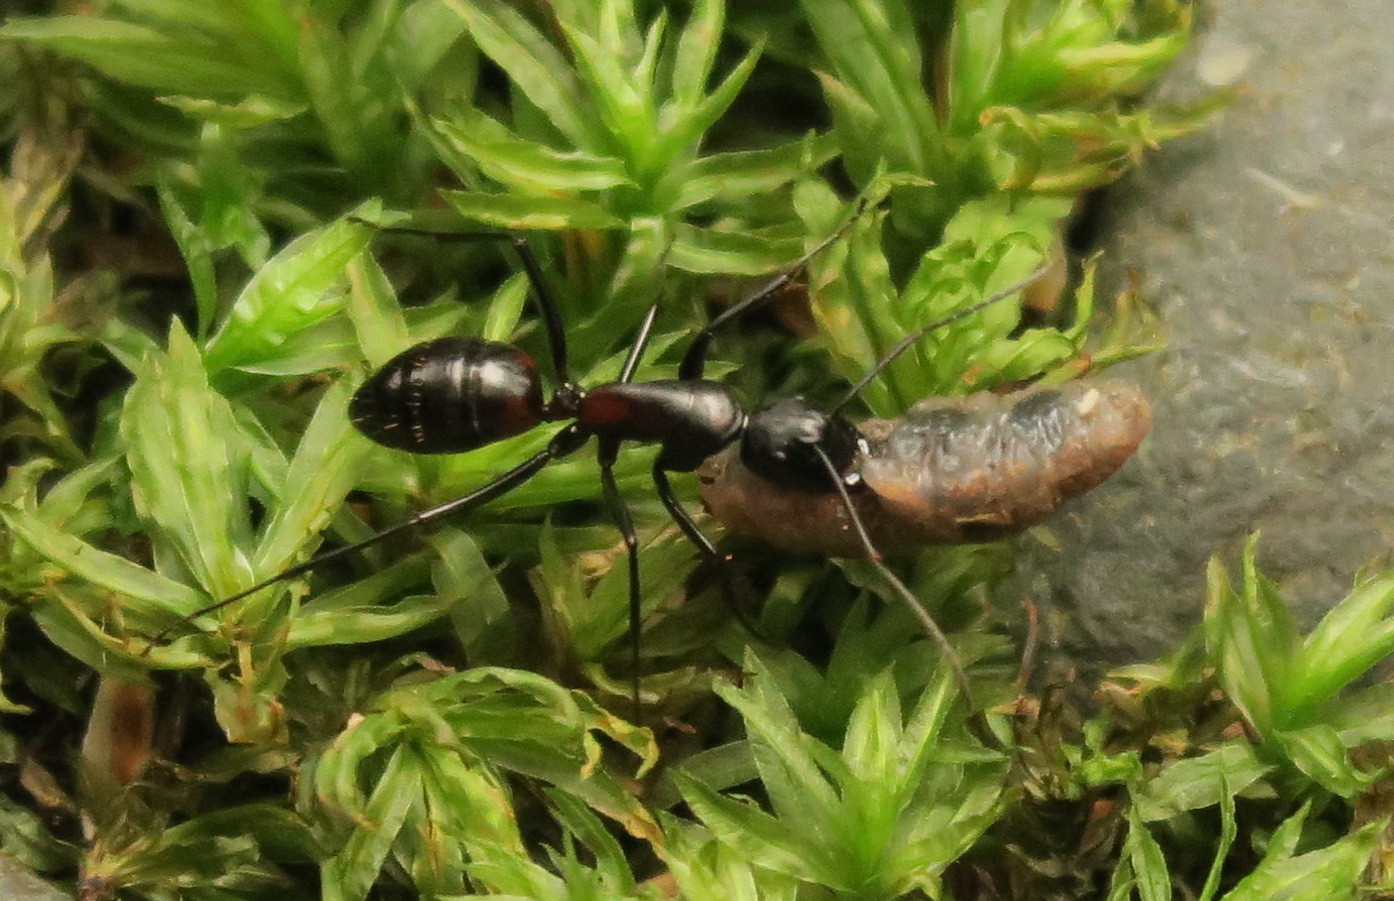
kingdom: Animalia
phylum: Arthropoda
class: Insecta
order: Hymenoptera
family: Formicidae
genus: Camponotus
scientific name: Camponotus hemichlaena
